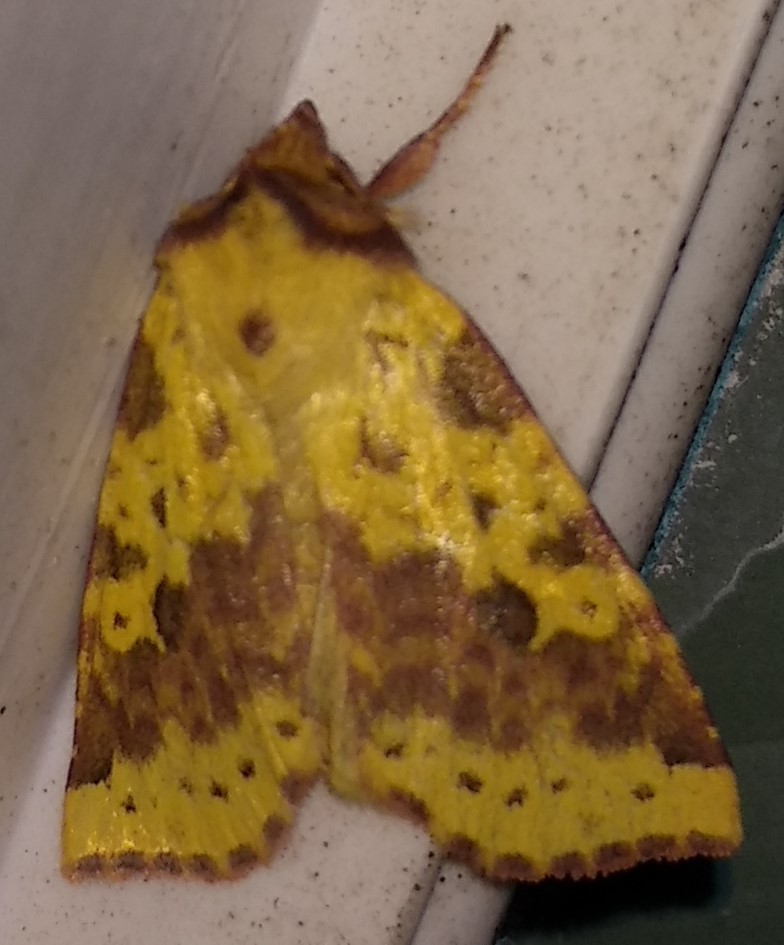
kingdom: Animalia
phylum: Arthropoda
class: Insecta
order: Lepidoptera
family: Noctuidae
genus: Xanthia
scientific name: Xanthia tatago
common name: Pink-banded sallow
